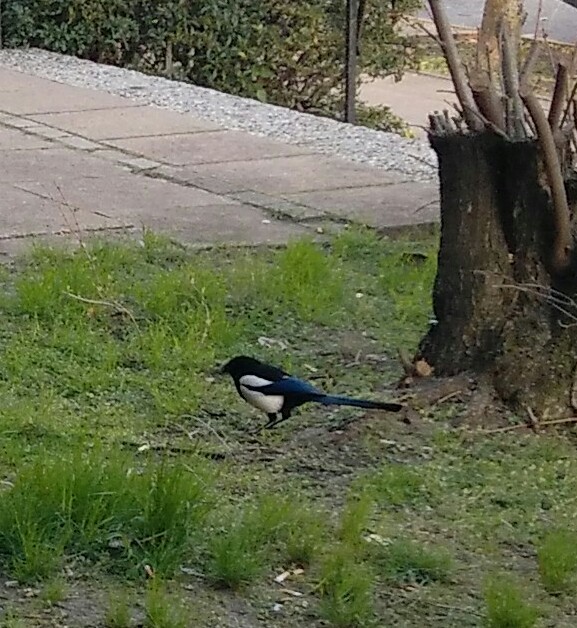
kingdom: Animalia
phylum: Chordata
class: Aves
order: Passeriformes
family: Corvidae
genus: Pica
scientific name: Pica pica
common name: Eurasian magpie
